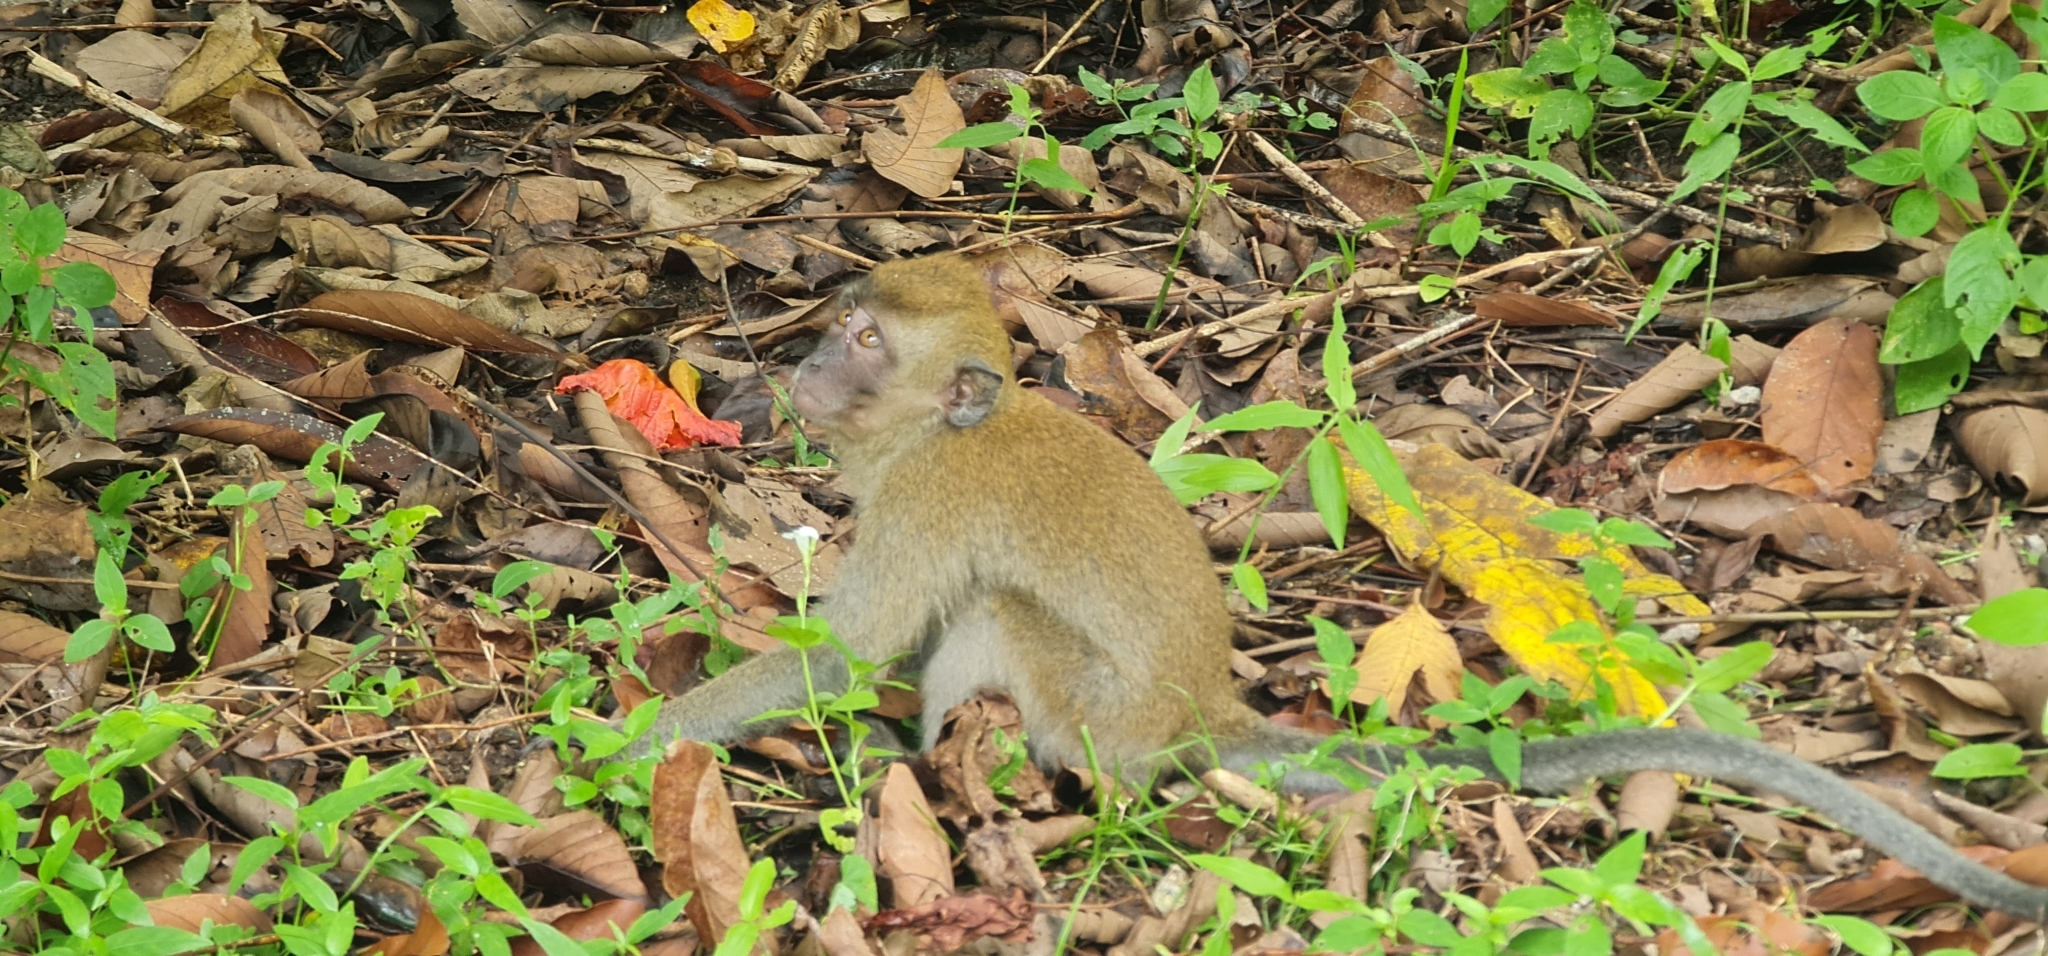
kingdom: Animalia
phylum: Chordata
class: Mammalia
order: Primates
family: Cercopithecidae
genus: Macaca
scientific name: Macaca fascicularis
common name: Crab-eating macaque
